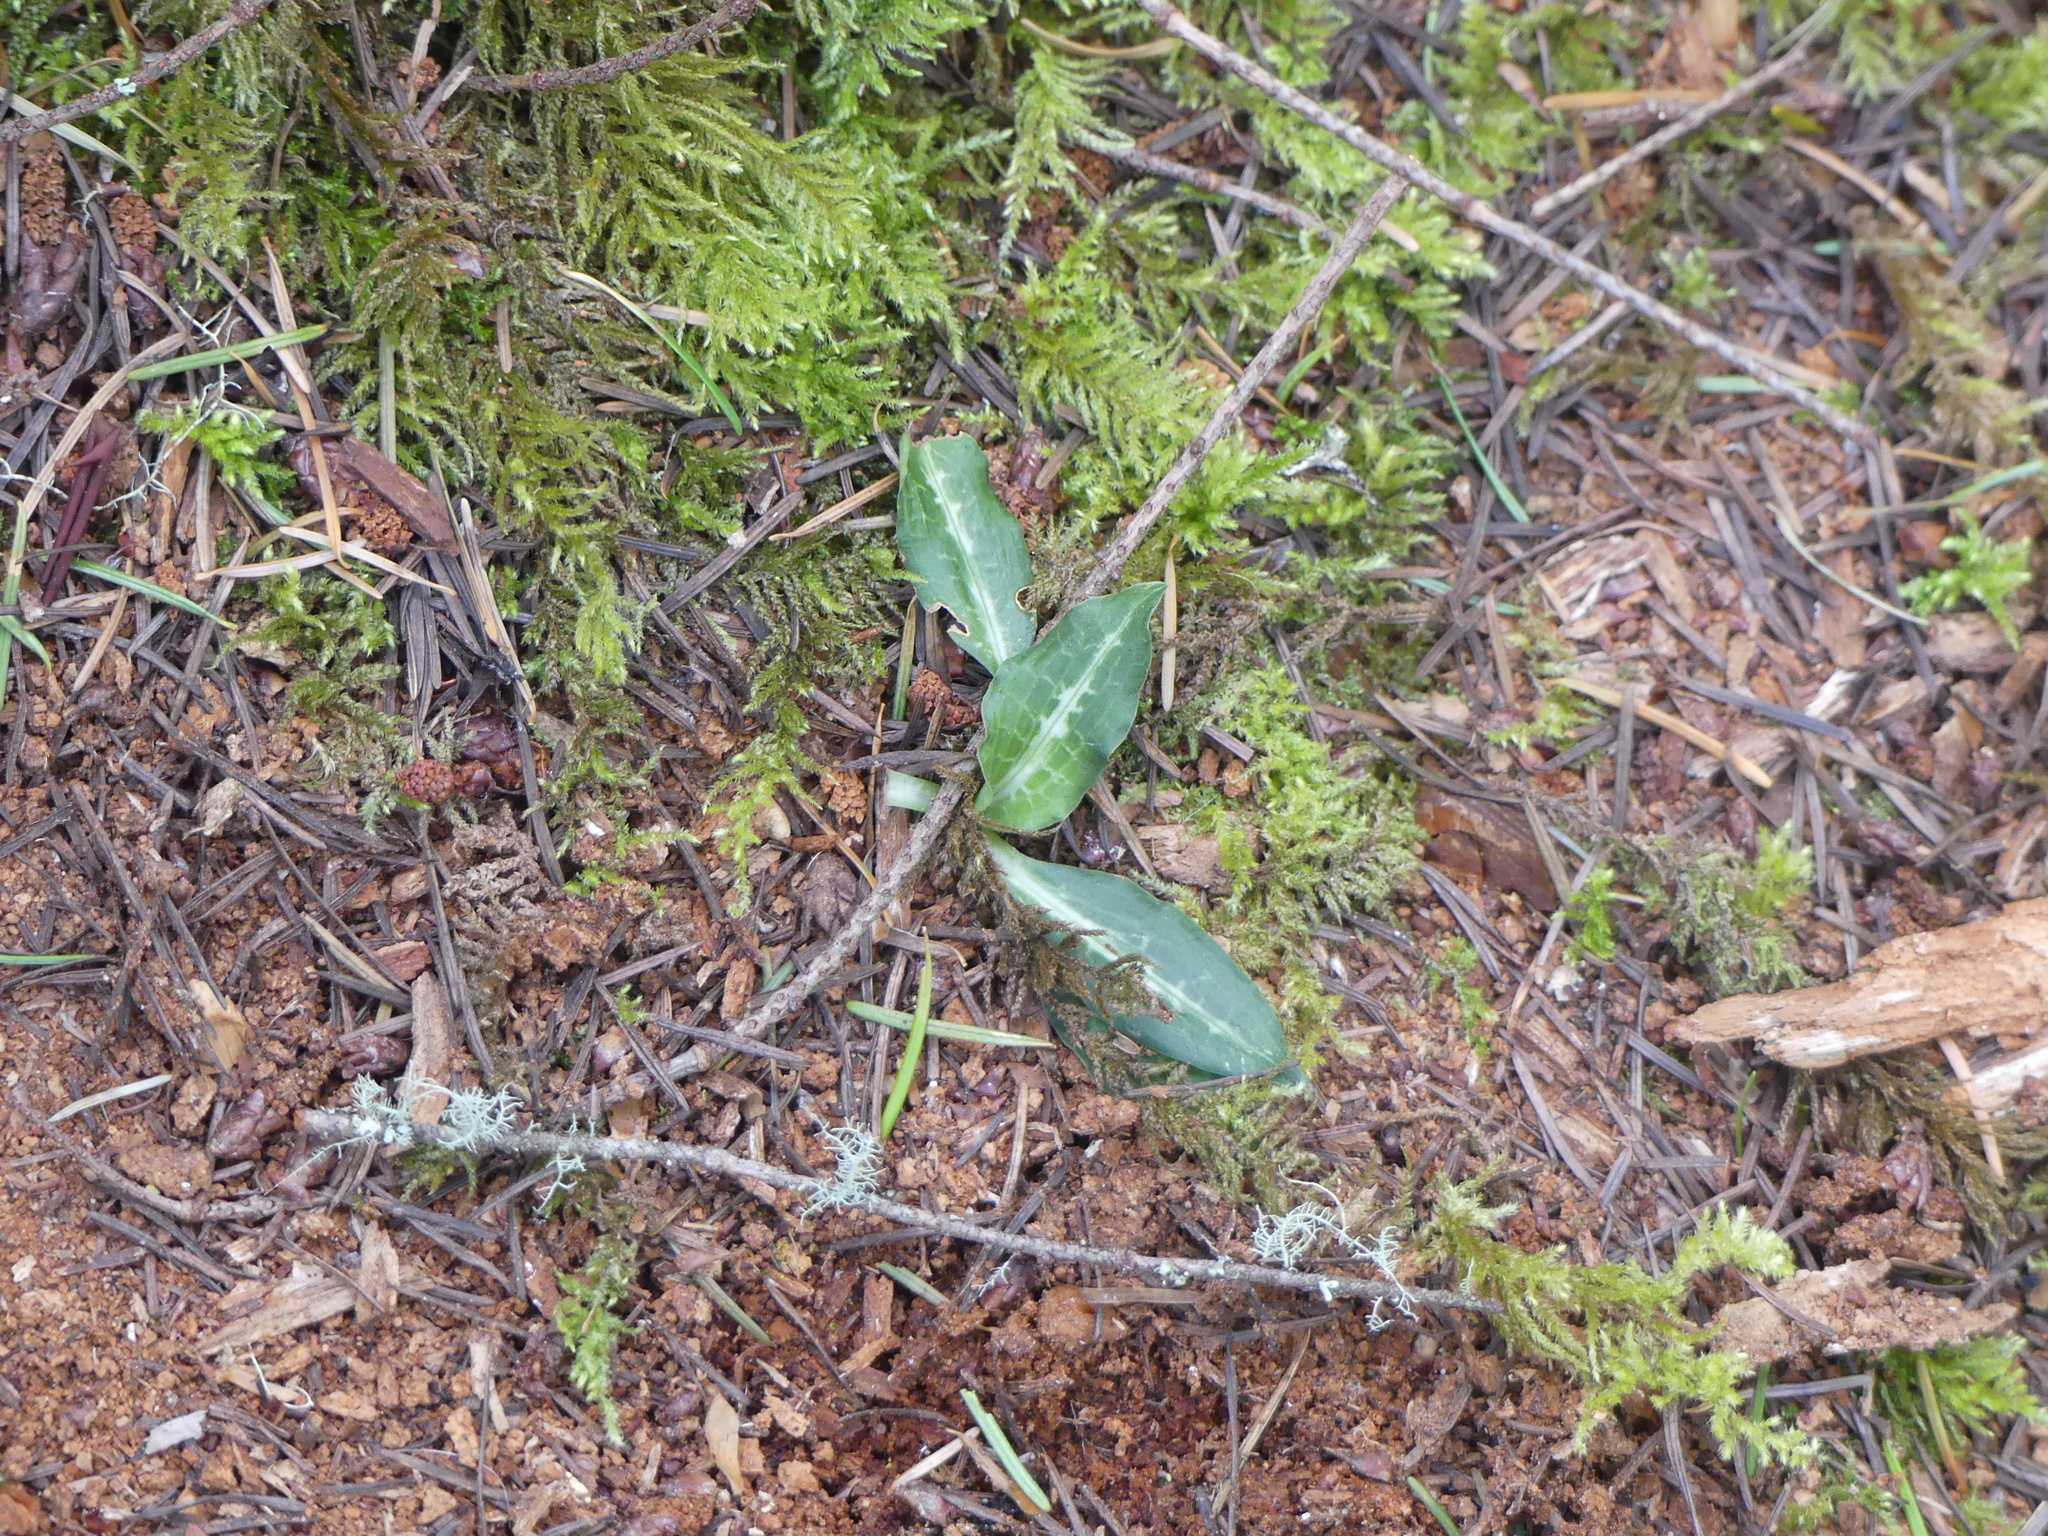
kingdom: Plantae
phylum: Tracheophyta
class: Liliopsida
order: Asparagales
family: Orchidaceae
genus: Goodyera
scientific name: Goodyera oblongifolia
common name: Giant rattlesnake-plantain
